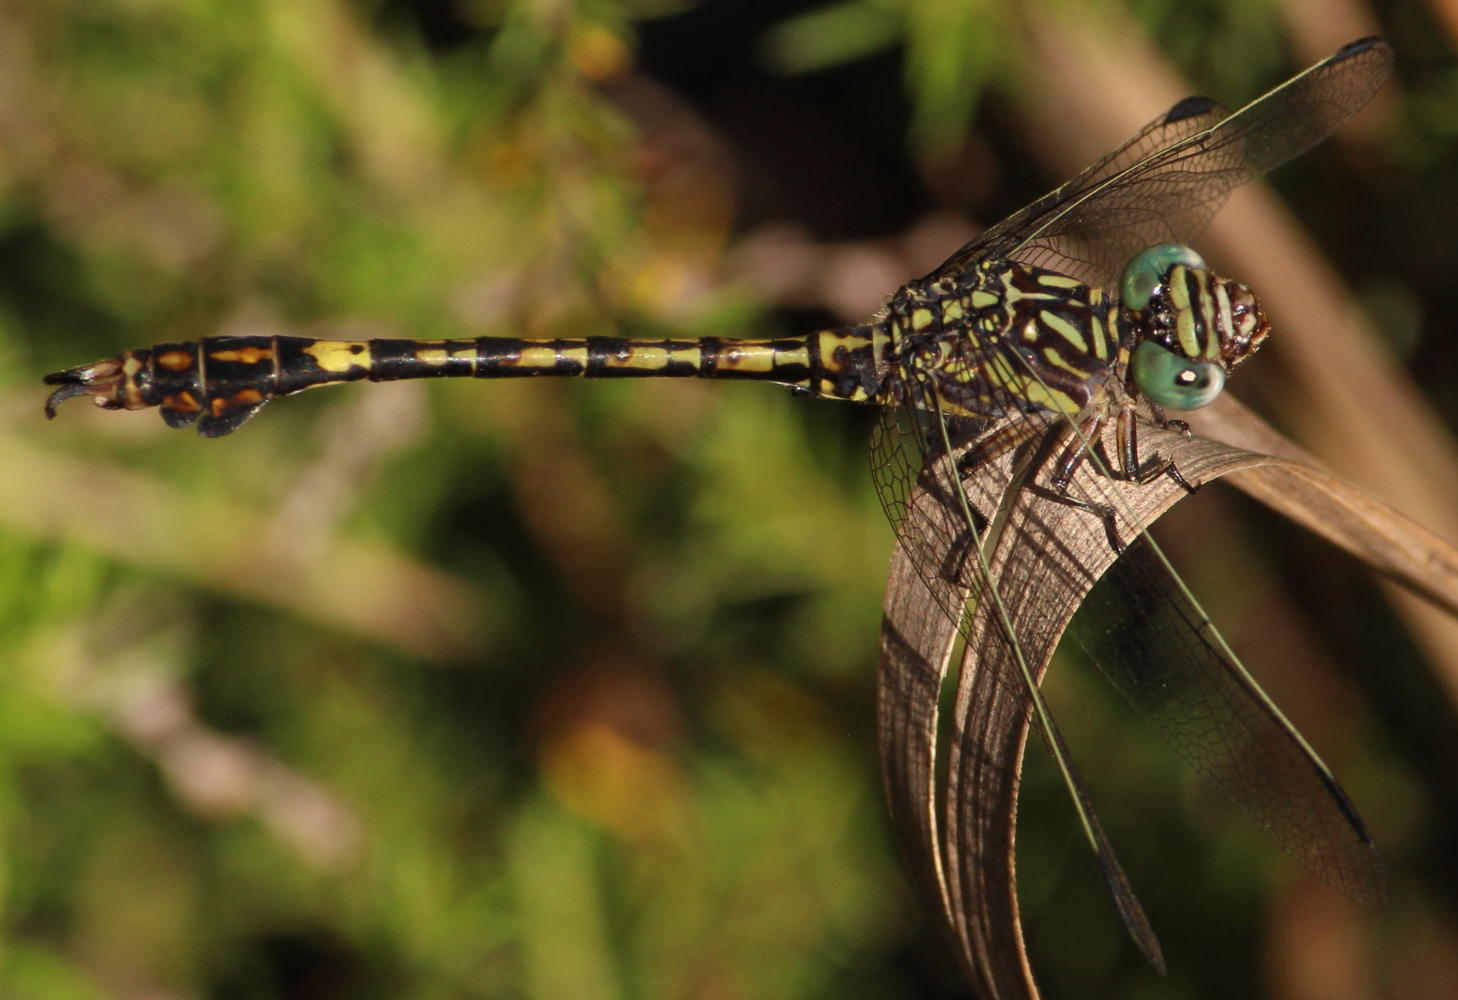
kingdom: Animalia
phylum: Arthropoda
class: Insecta
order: Odonata
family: Gomphidae
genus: Paragomphus
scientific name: Paragomphus cognatus
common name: Boulder hooktail
